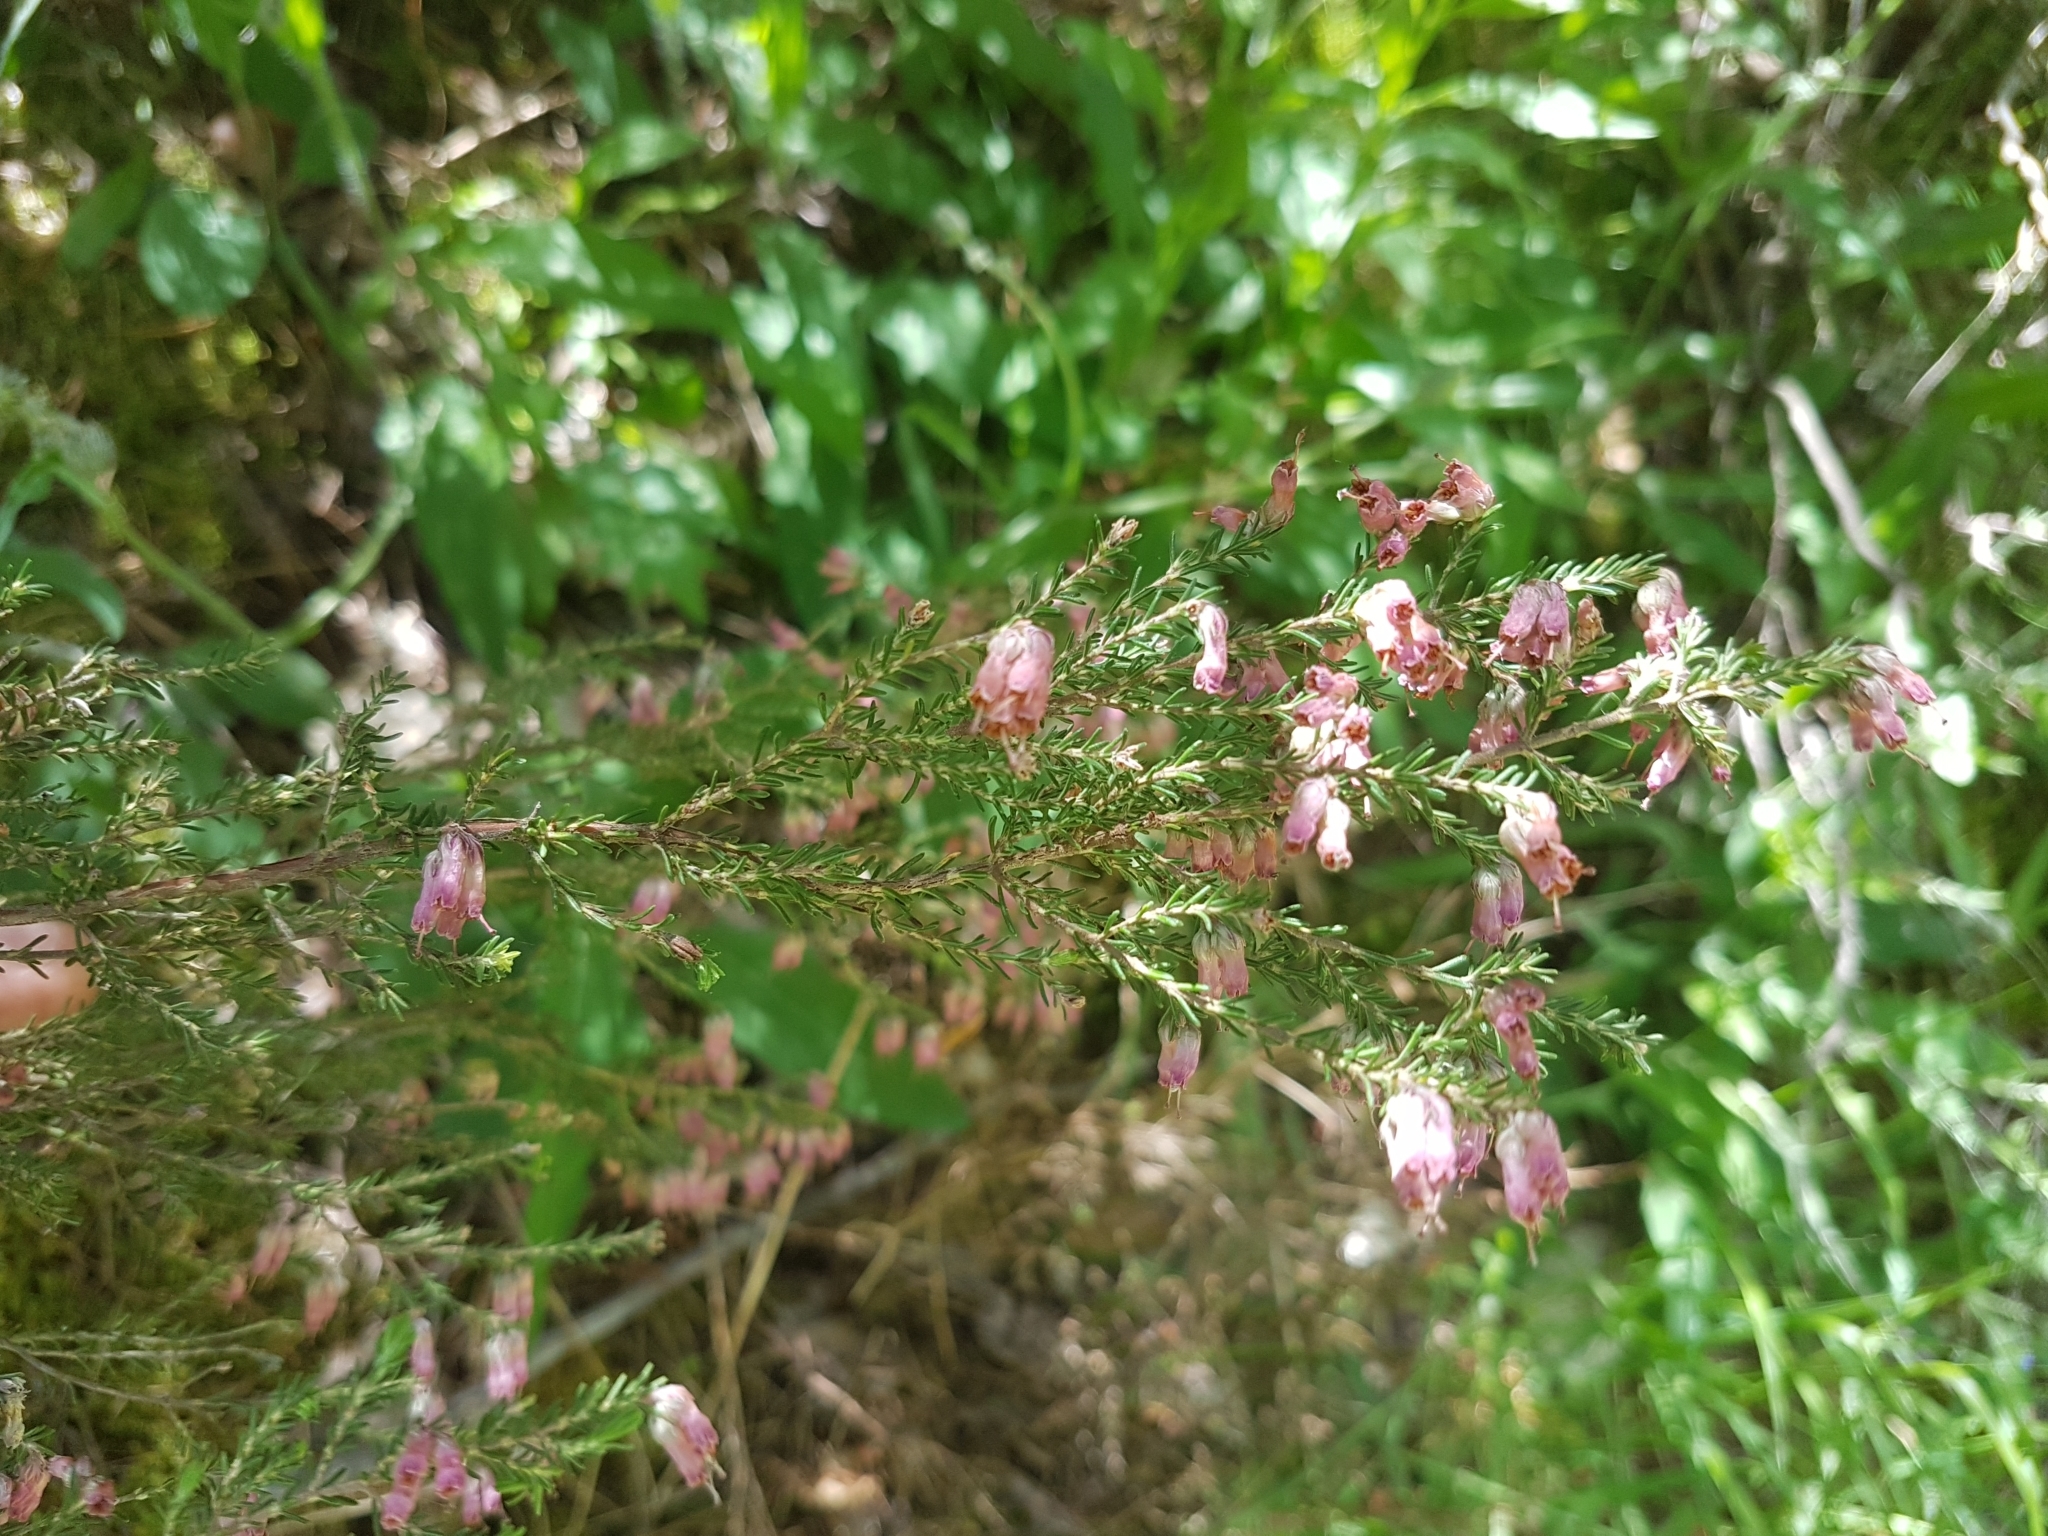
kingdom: Plantae
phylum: Tracheophyta
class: Magnoliopsida
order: Ericales
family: Ericaceae
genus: Erica
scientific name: Erica australis
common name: Spanish heath
